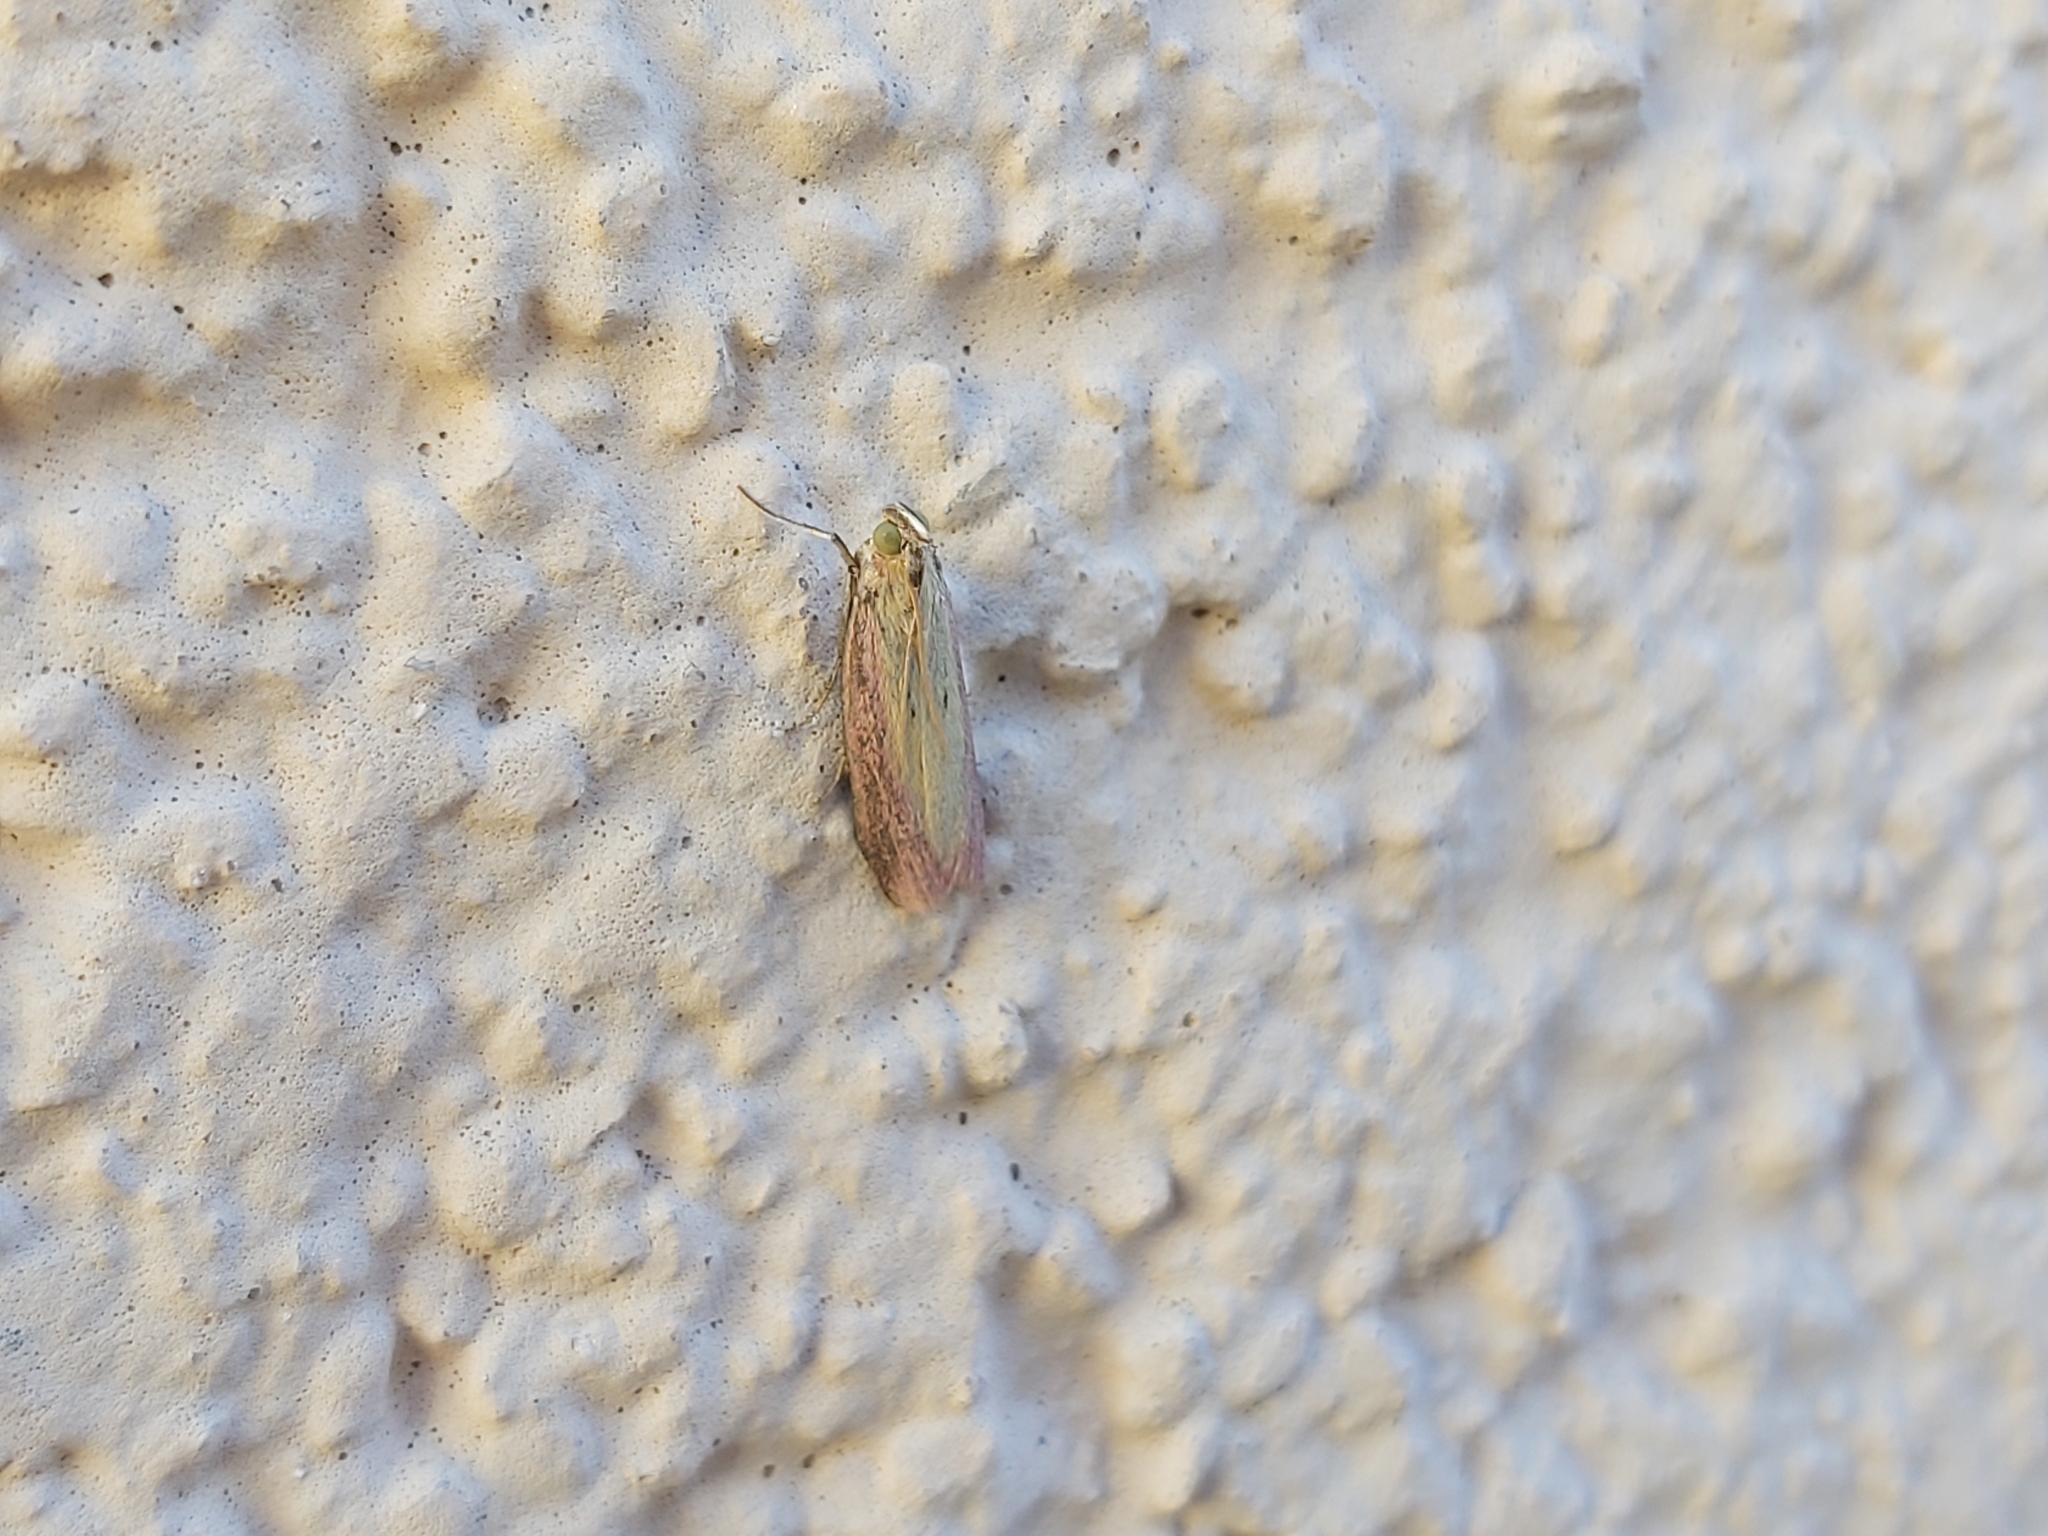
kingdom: Animalia
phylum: Arthropoda
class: Insecta
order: Lepidoptera
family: Pyralidae
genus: Oncocera
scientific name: Oncocera semirubella
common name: Rosy-striped knot-horn
